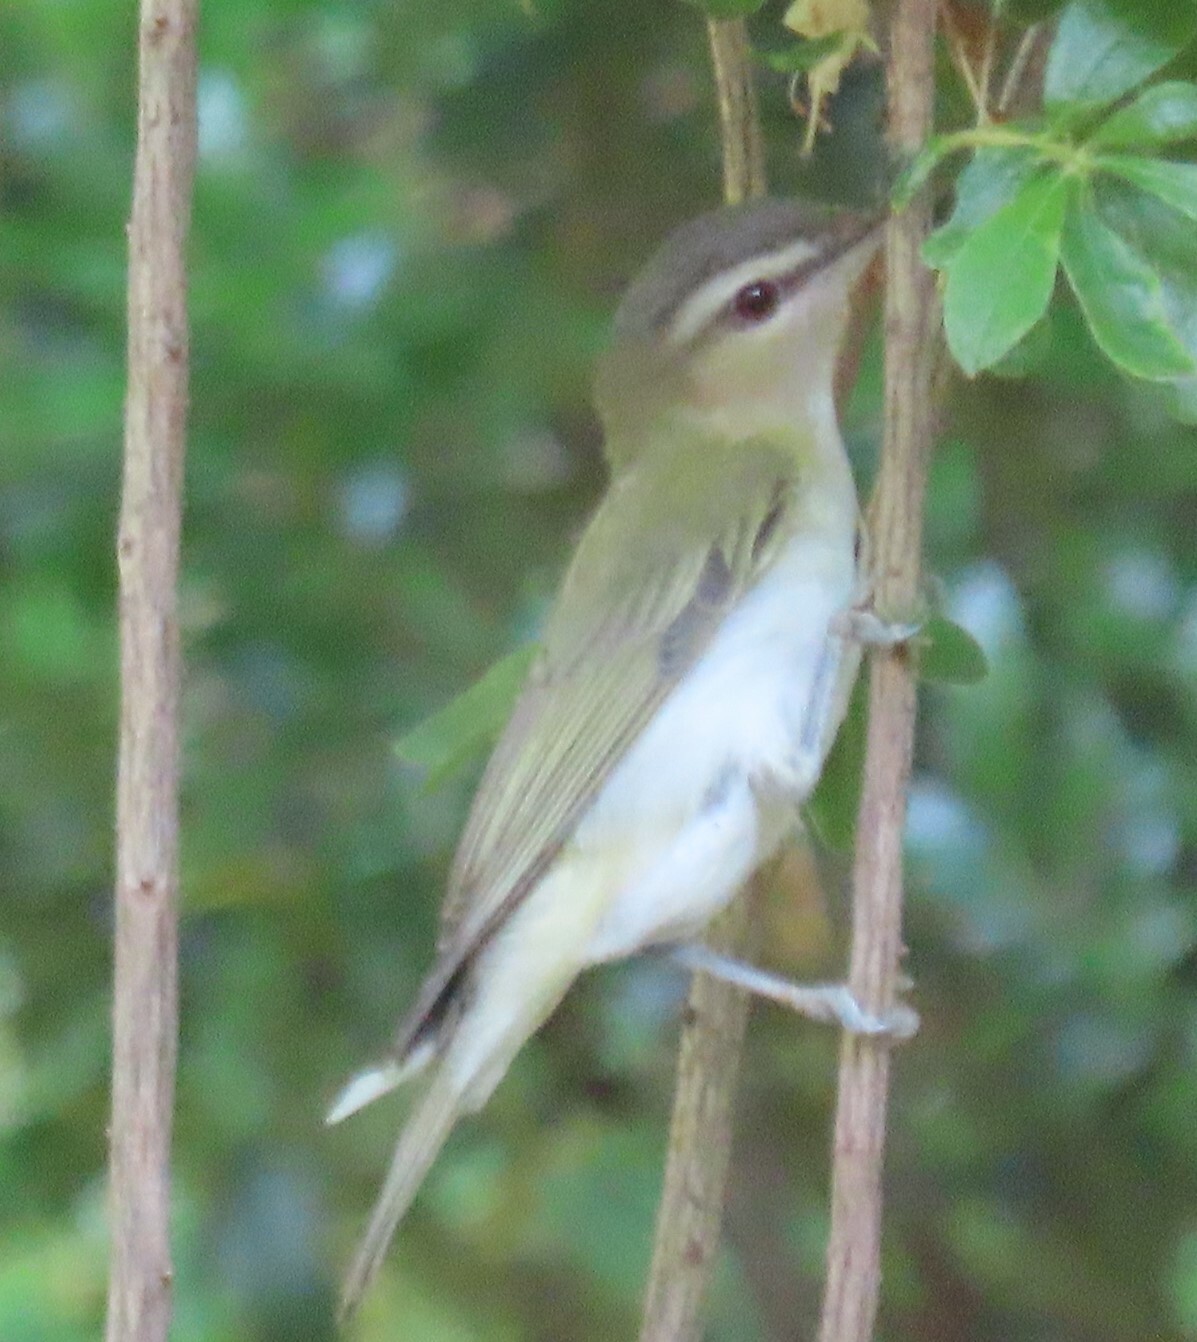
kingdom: Animalia
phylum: Chordata
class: Aves
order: Passeriformes
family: Vireonidae
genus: Vireo
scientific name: Vireo olivaceus
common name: Red-eyed vireo
